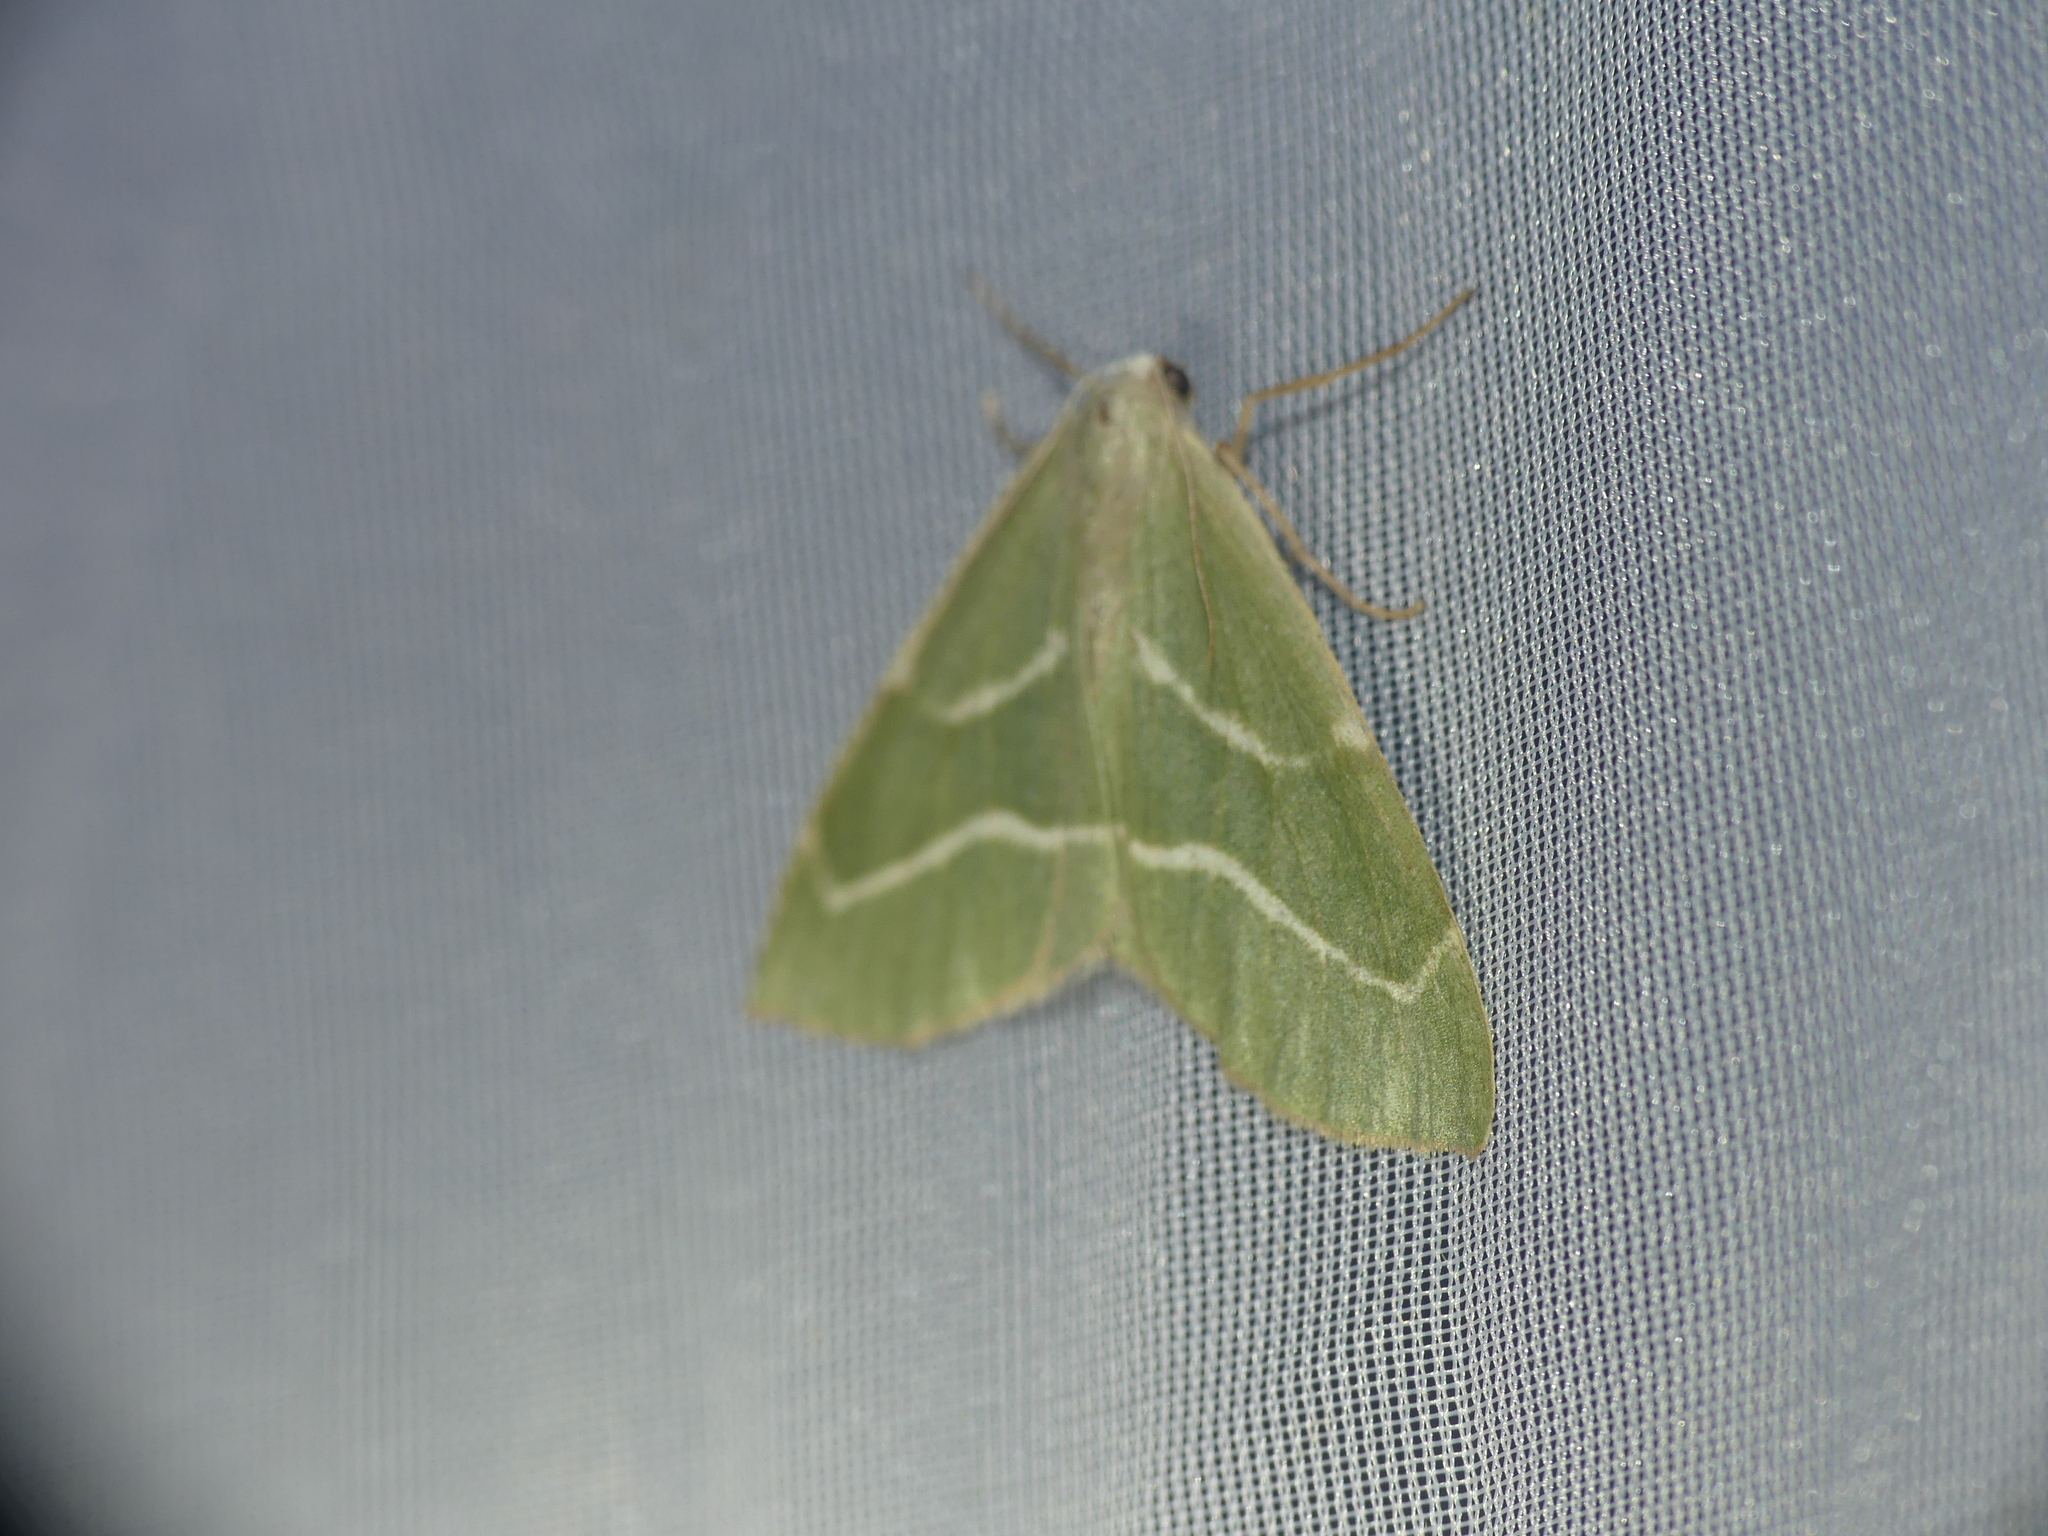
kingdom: Animalia
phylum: Arthropoda
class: Insecta
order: Lepidoptera
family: Geometridae
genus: Hylaea
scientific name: Hylaea fasciaria
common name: Barred red
